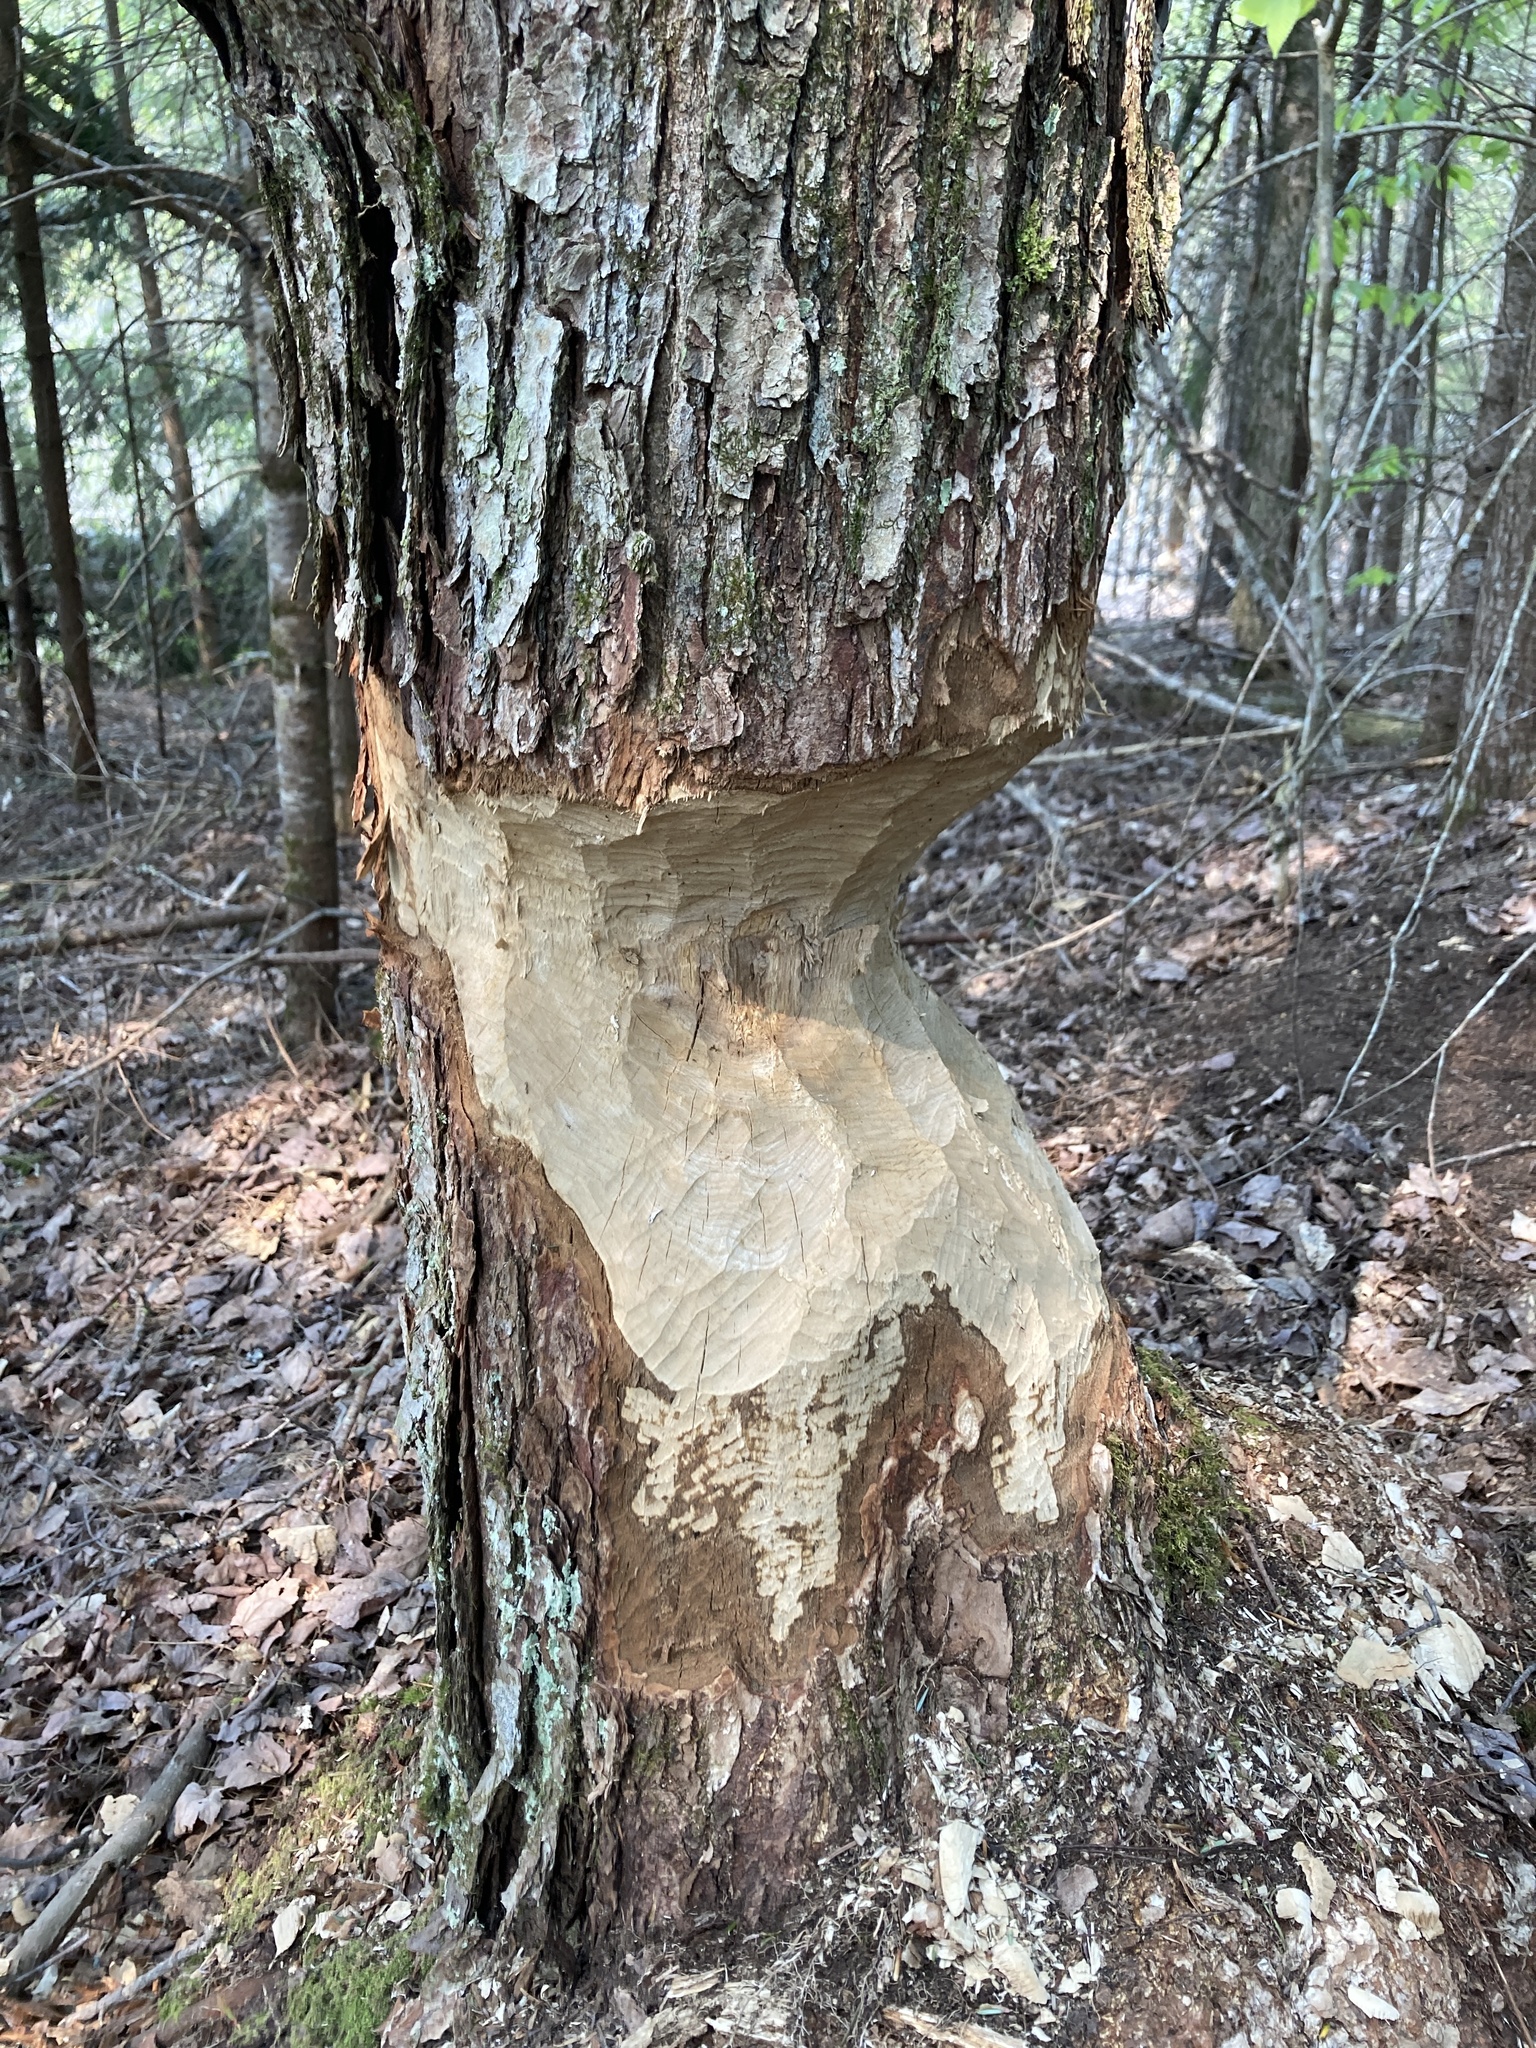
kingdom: Animalia
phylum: Chordata
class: Mammalia
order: Rodentia
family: Castoridae
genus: Castor
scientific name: Castor canadensis
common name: American beaver
